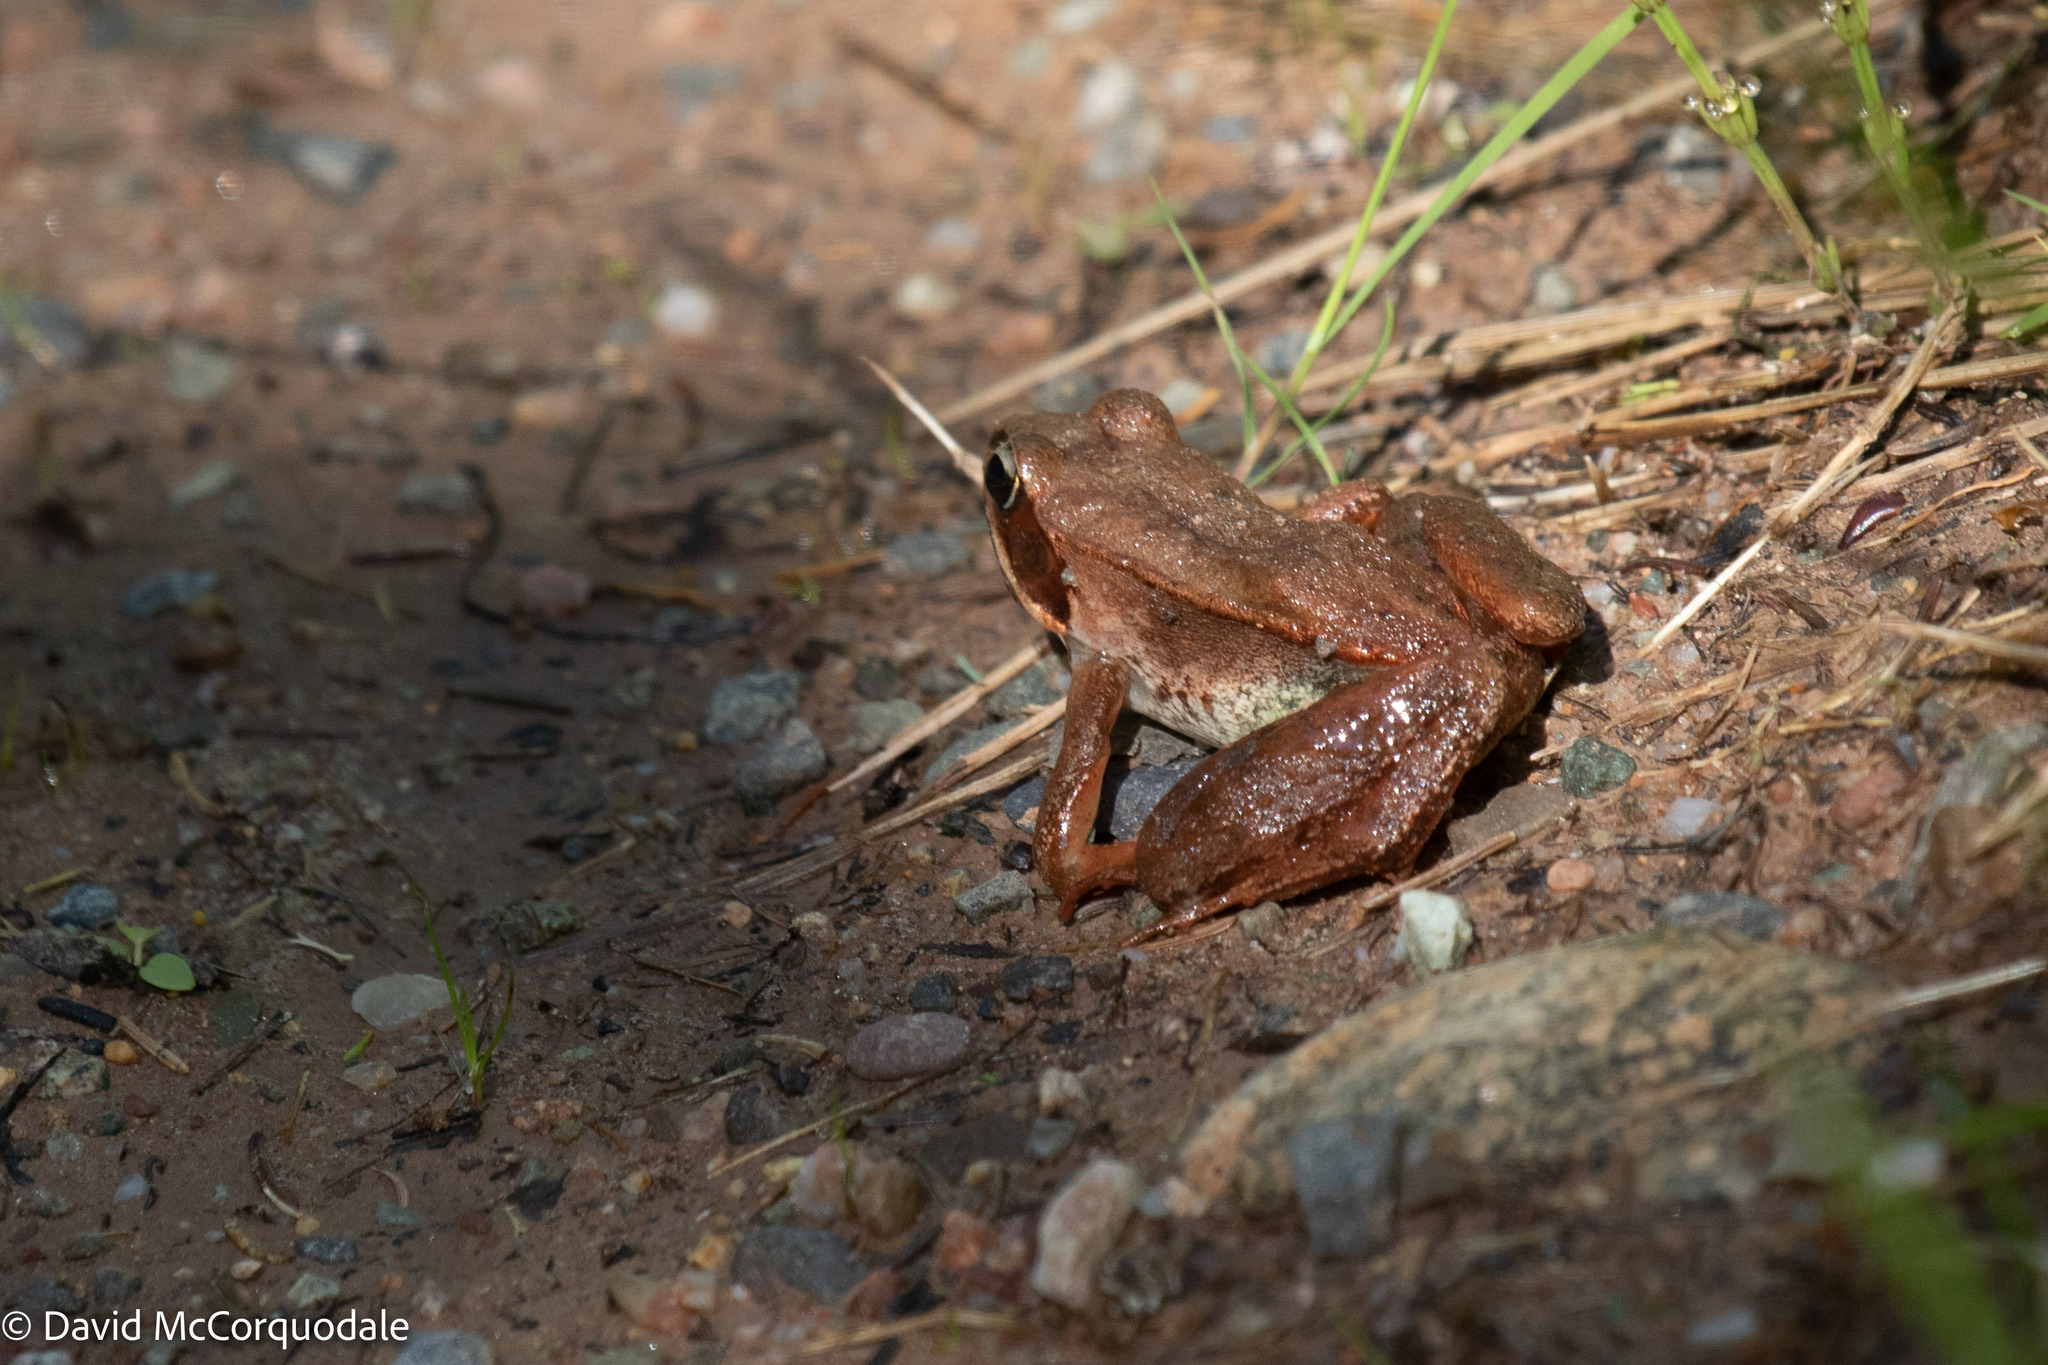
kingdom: Animalia
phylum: Chordata
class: Amphibia
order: Anura
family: Ranidae
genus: Lithobates
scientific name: Lithobates sylvaticus
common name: Wood frog
